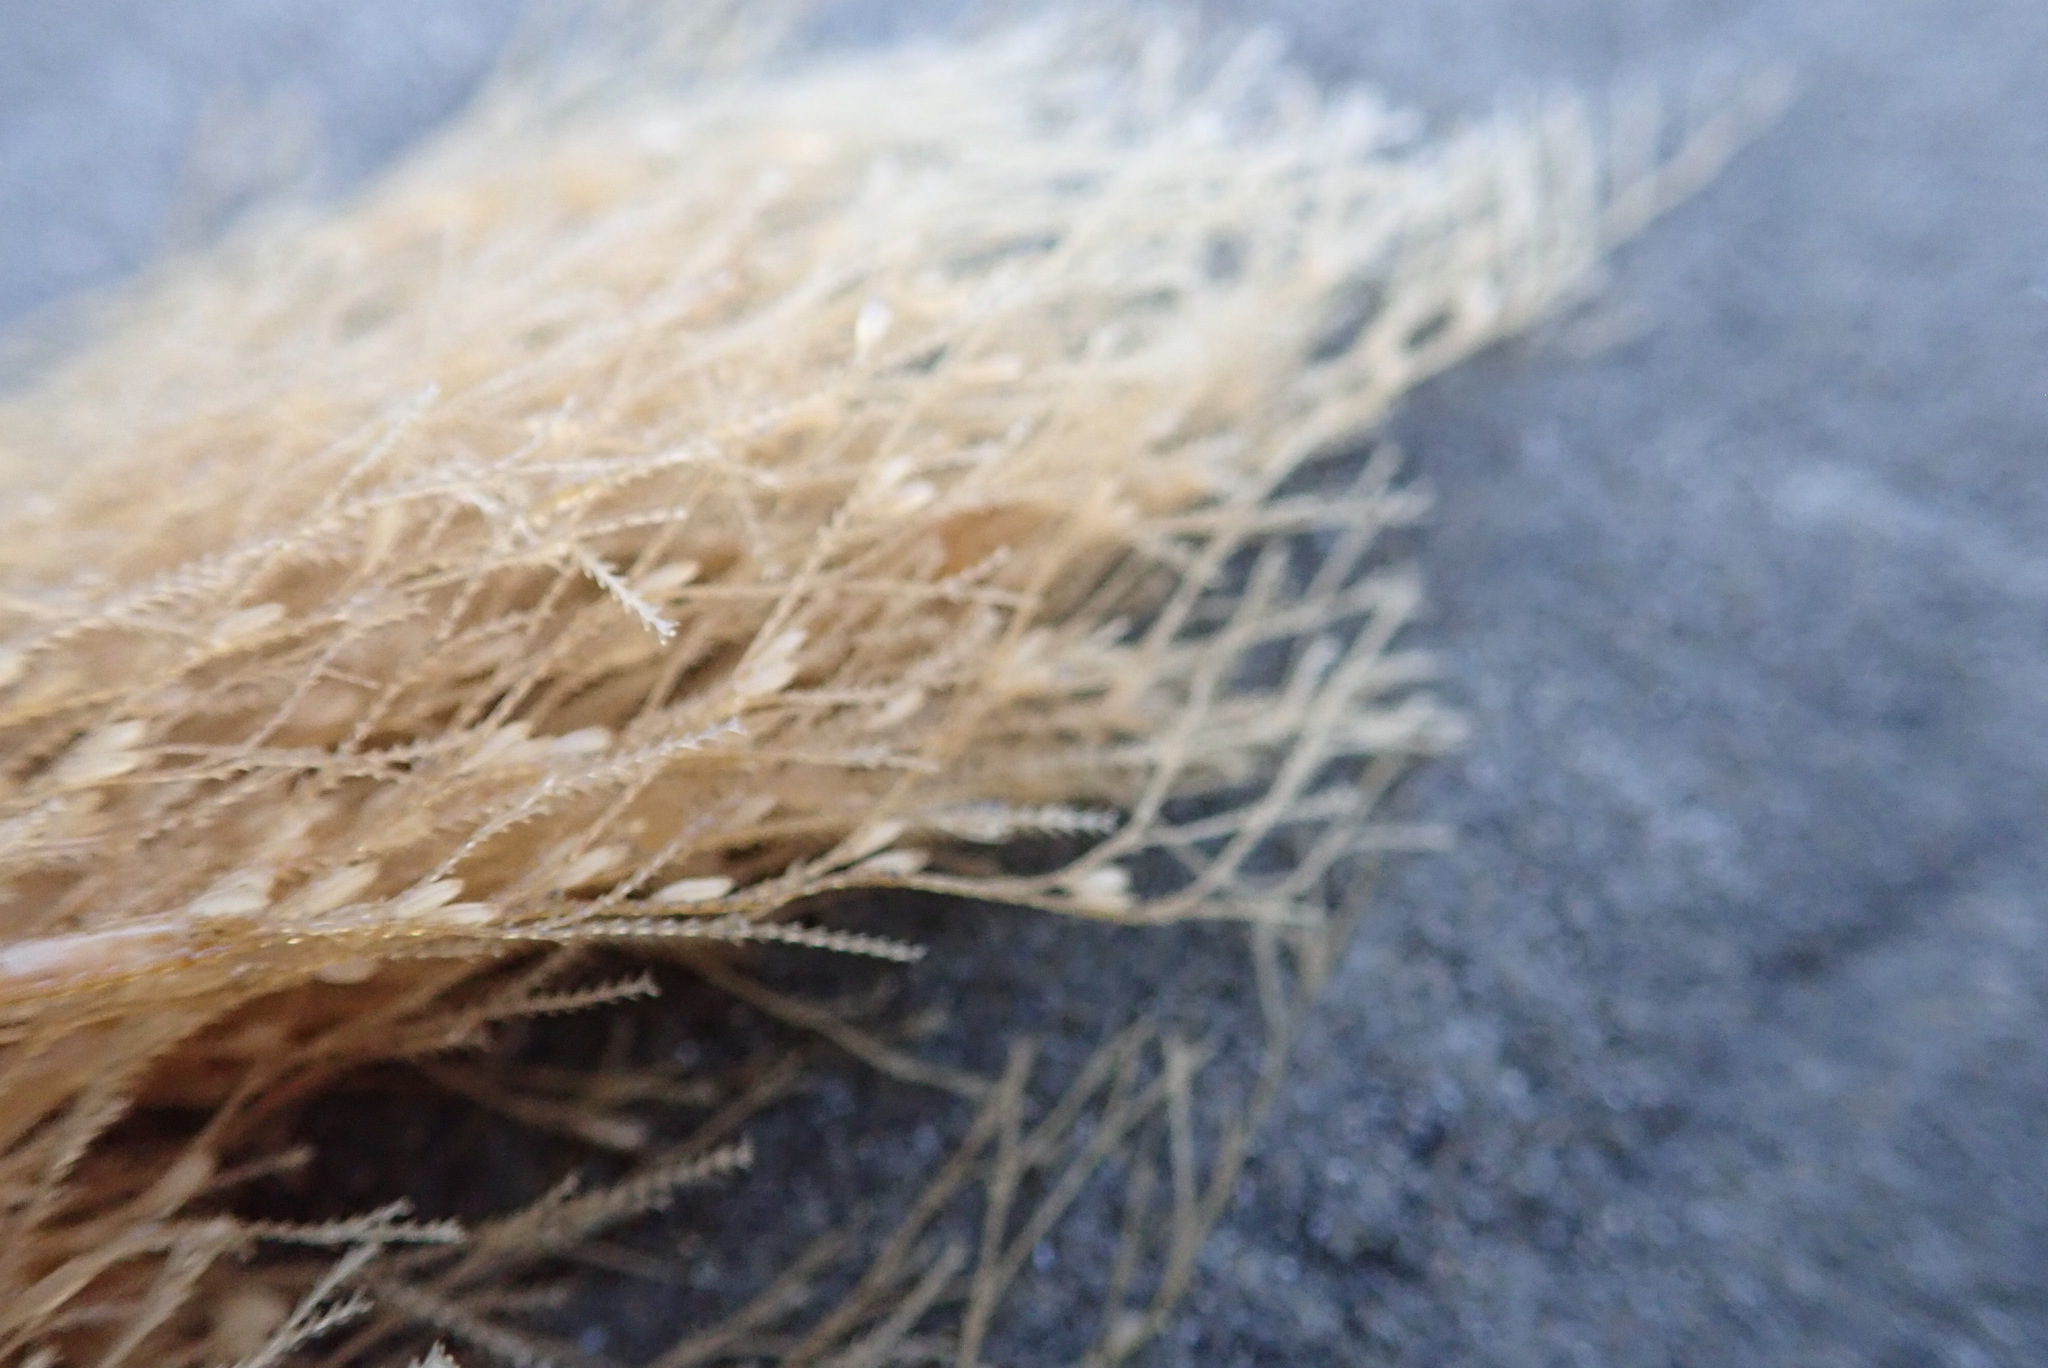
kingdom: Animalia
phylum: Cnidaria
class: Hydrozoa
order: Leptothecata
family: Sertulariidae
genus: Amphisbetia
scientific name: Amphisbetia bispinosa
